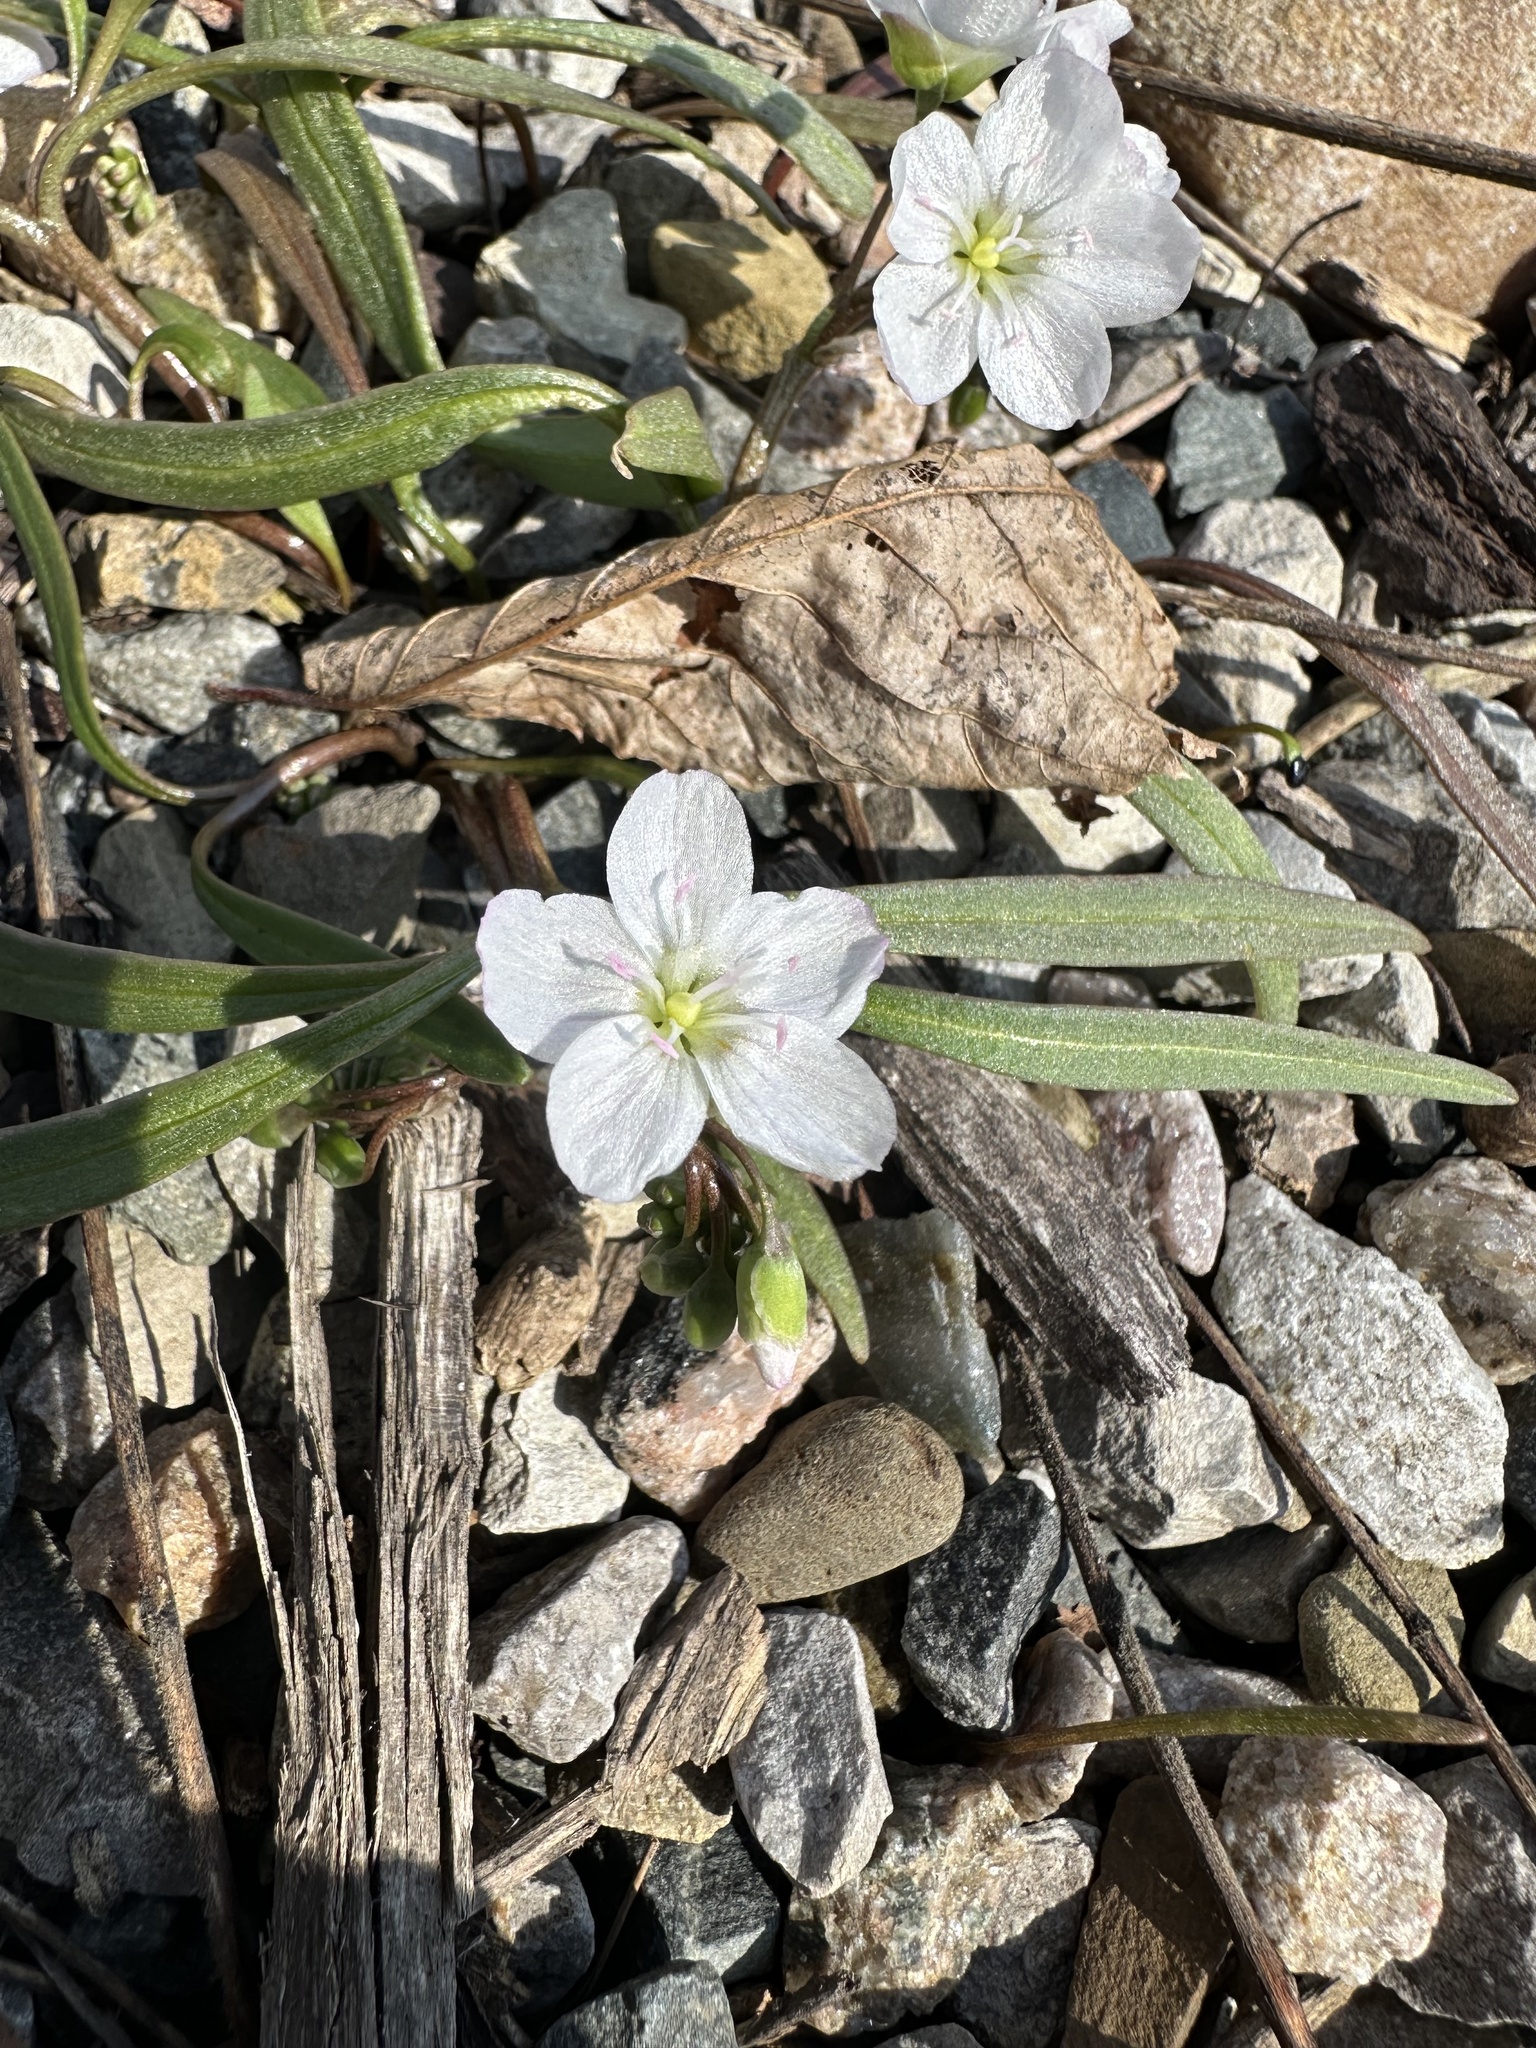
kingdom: Plantae
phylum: Tracheophyta
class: Magnoliopsida
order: Caryophyllales
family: Montiaceae
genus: Claytonia
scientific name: Claytonia virginica
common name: Virginia springbeauty
